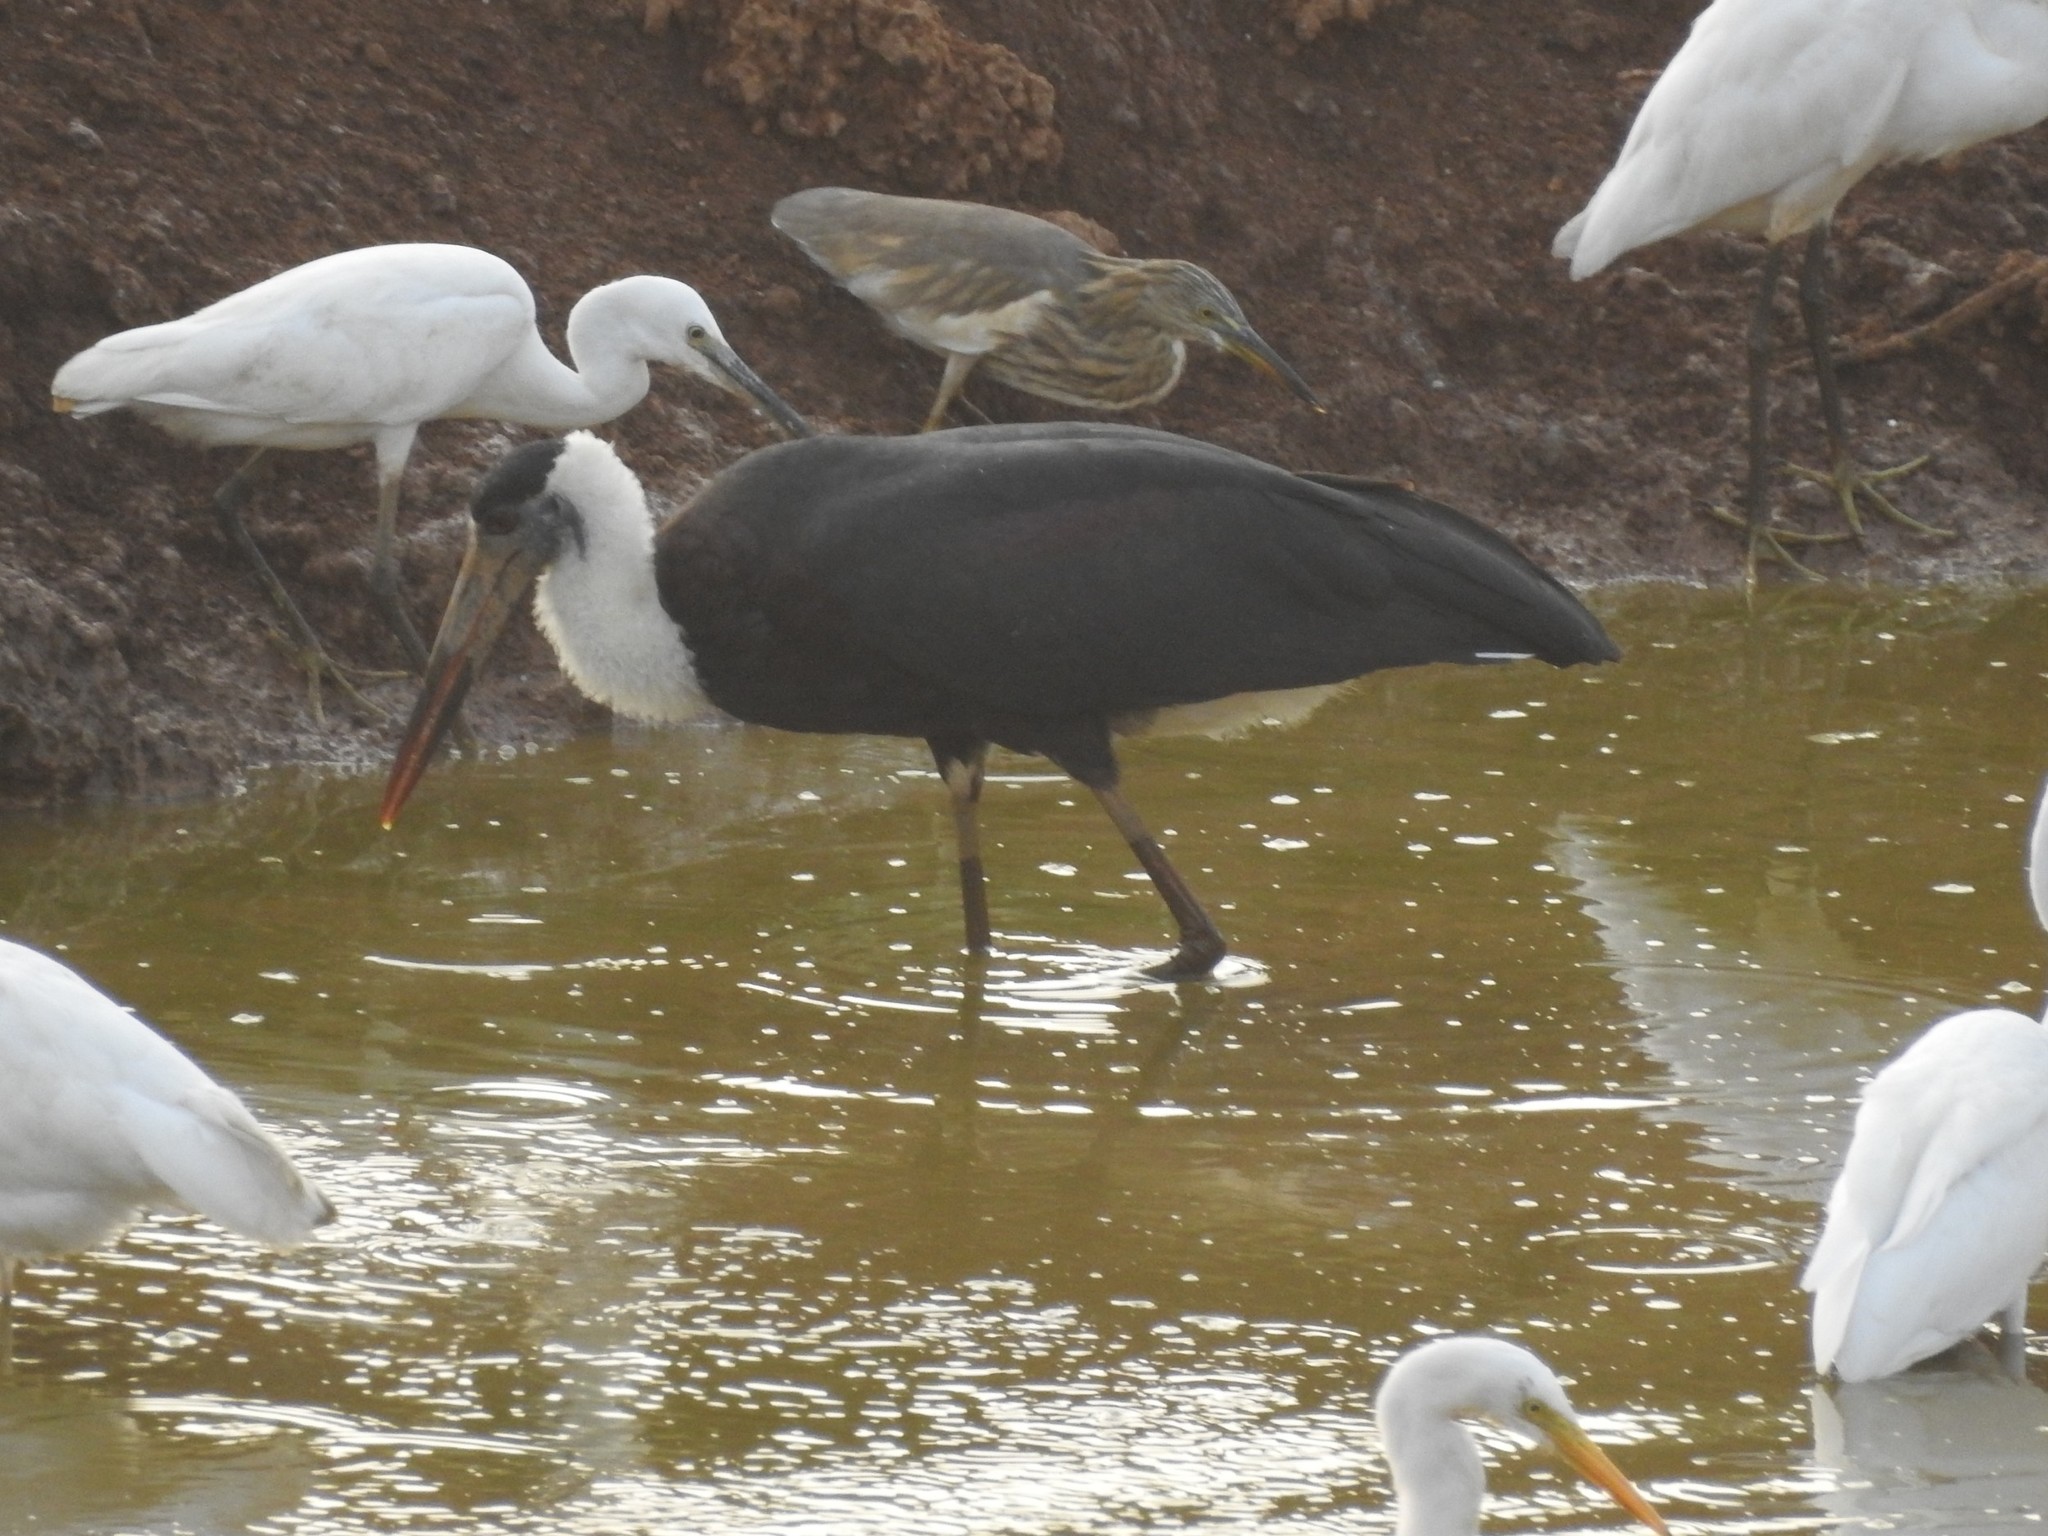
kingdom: Animalia
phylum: Chordata
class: Aves
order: Ciconiiformes
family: Ciconiidae
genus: Ciconia
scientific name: Ciconia episcopus
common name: Woolly-necked stork
